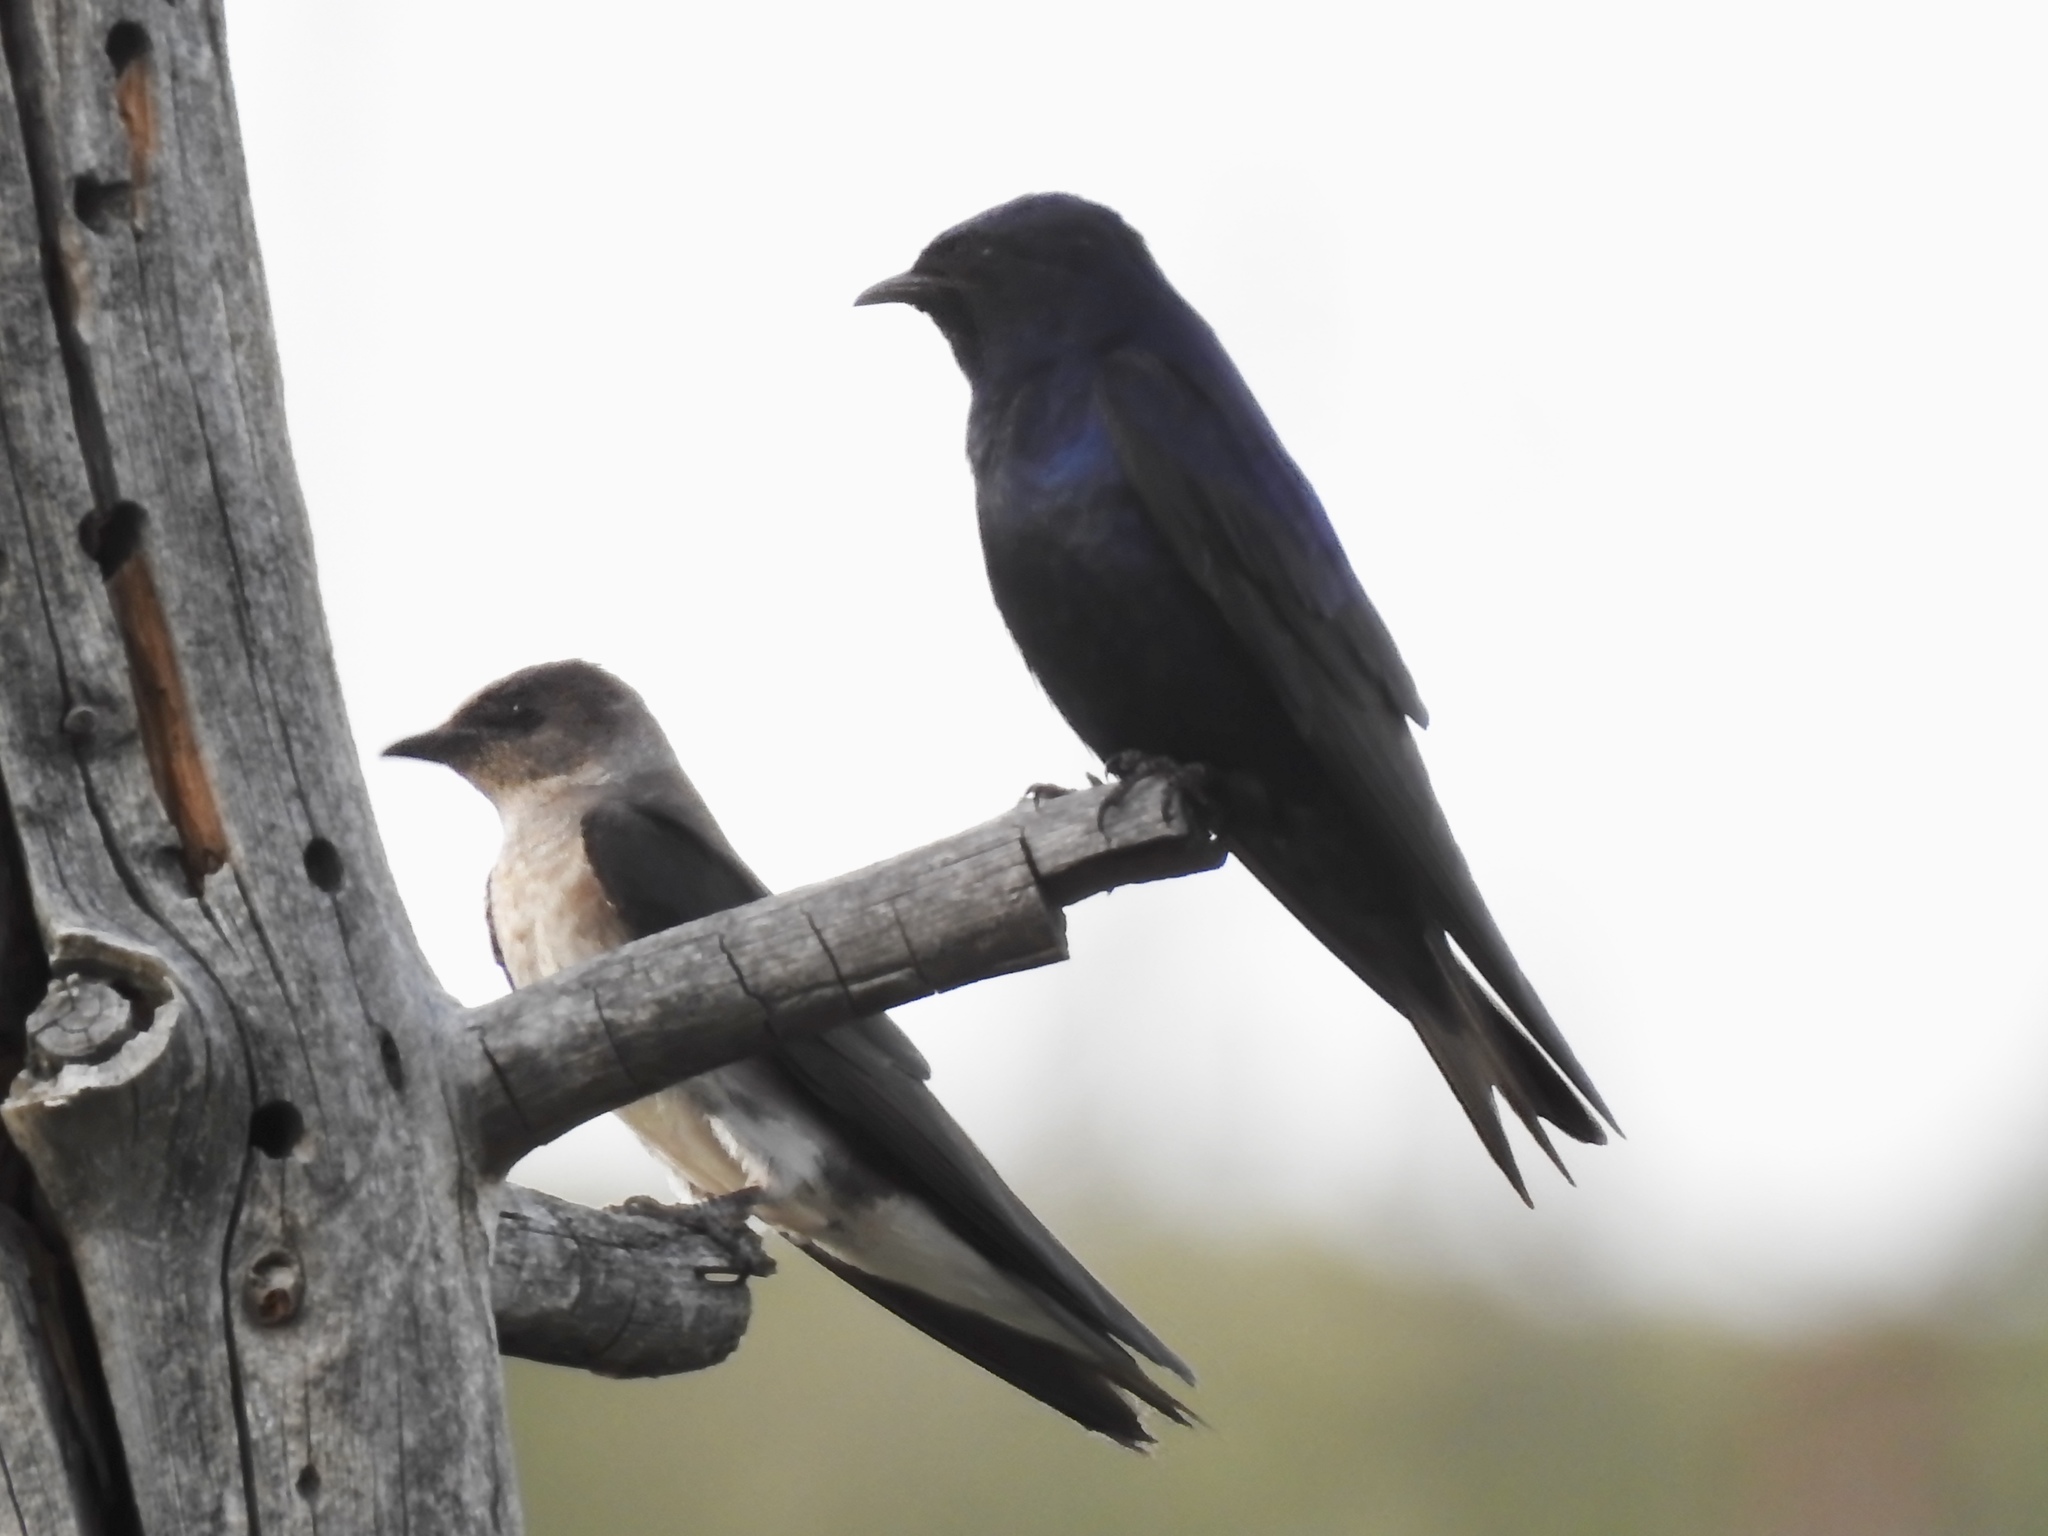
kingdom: Animalia
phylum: Chordata
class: Aves
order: Passeriformes
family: Hirundinidae
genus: Progne
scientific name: Progne subis
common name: Purple martin
